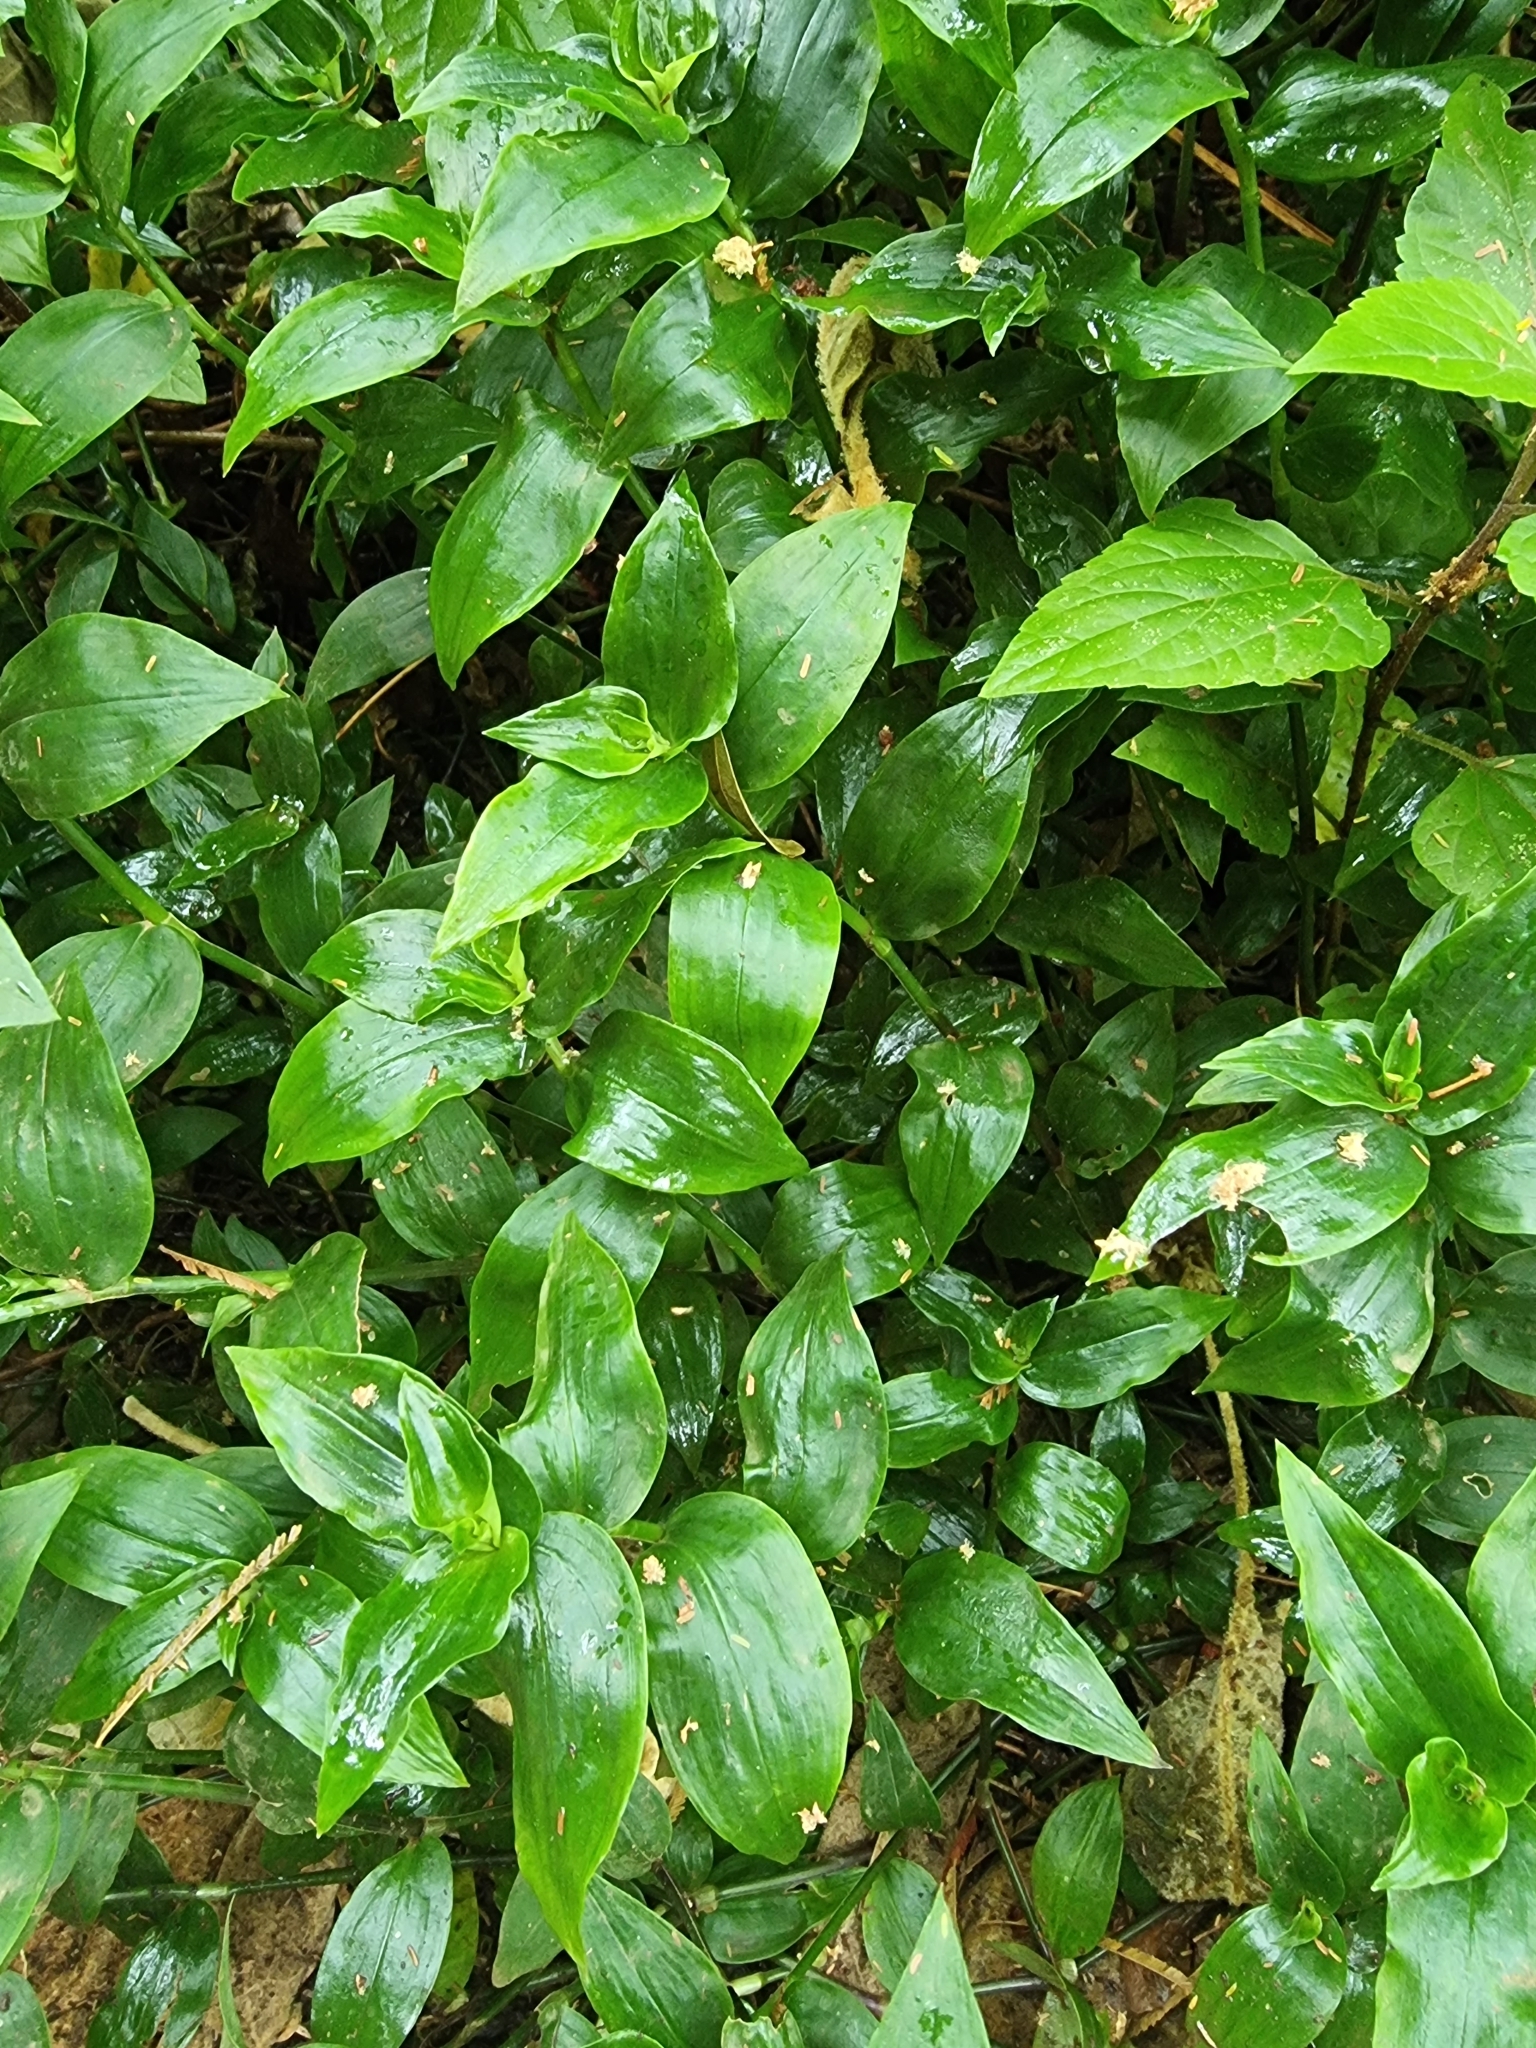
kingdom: Plantae
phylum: Tracheophyta
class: Liliopsida
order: Commelinales
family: Commelinaceae
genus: Tradescantia
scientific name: Tradescantia fluminensis
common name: Wandering-jew
